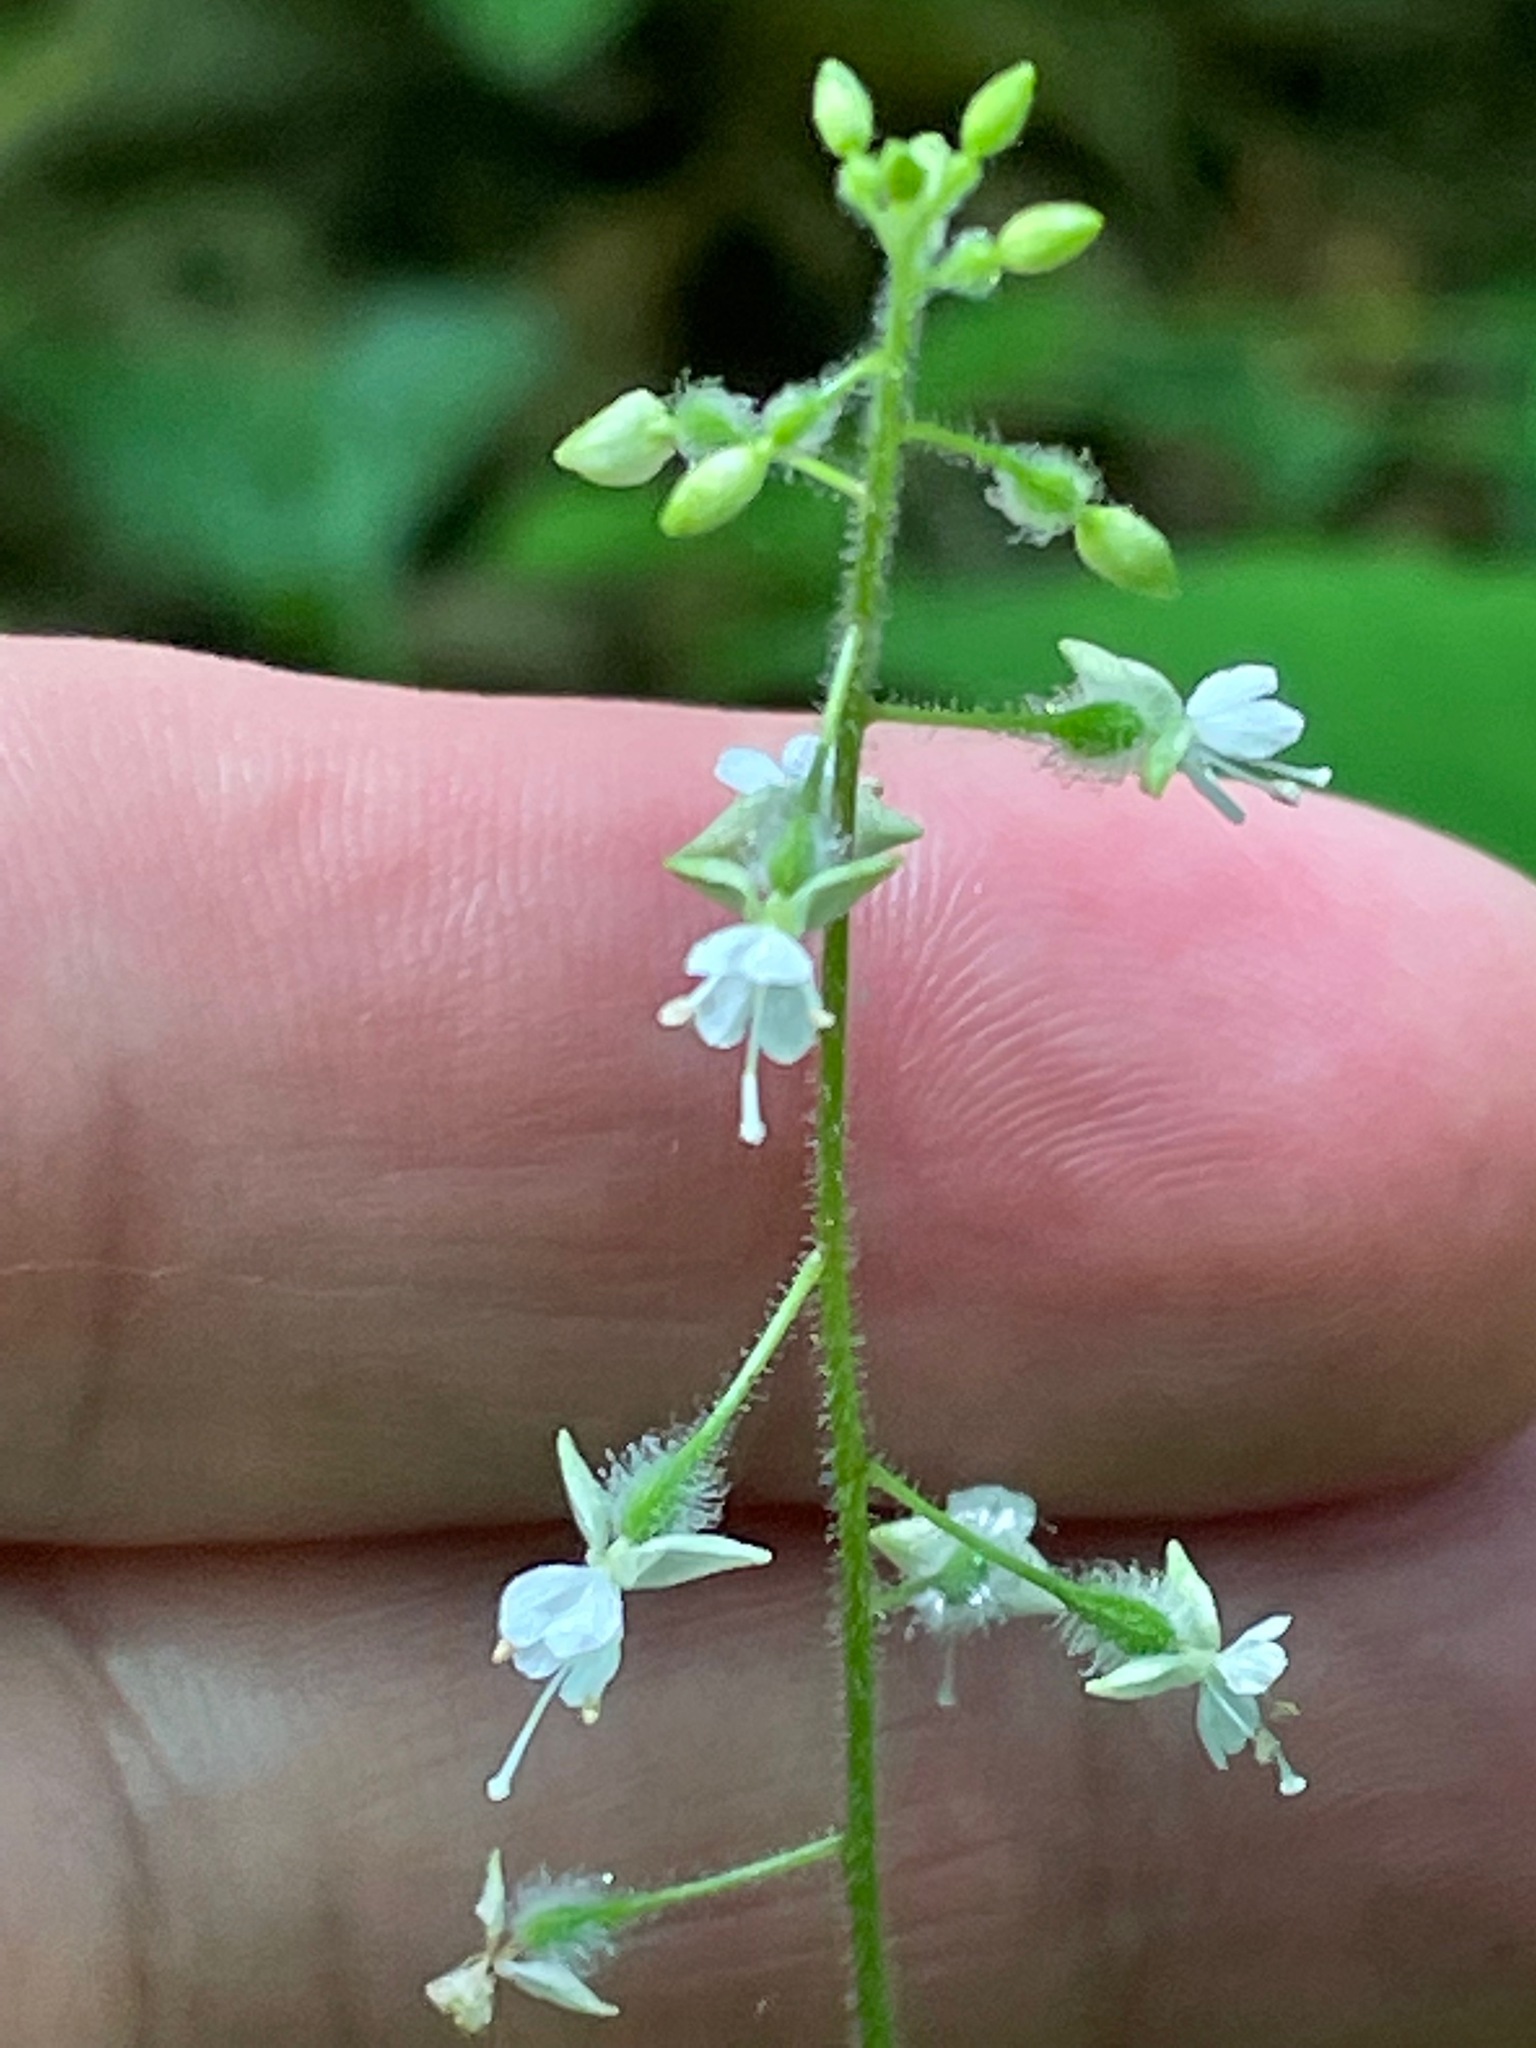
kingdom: Plantae
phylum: Tracheophyta
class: Magnoliopsida
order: Myrtales
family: Onagraceae
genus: Circaea
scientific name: Circaea canadensis
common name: Broad-leaved enchanter's nightshade
